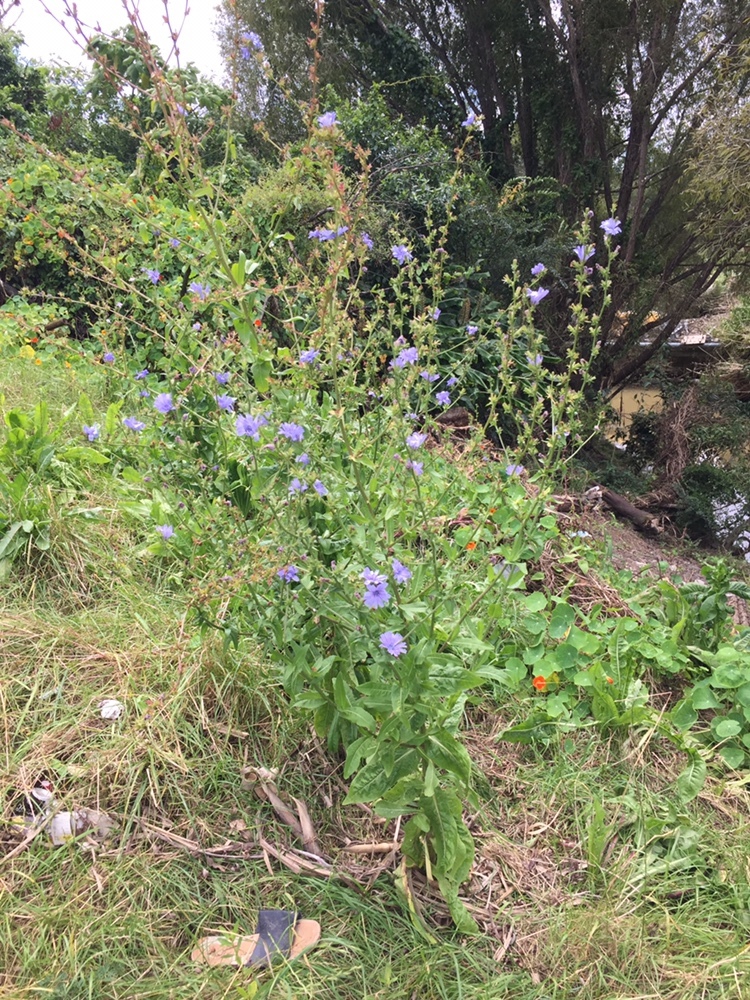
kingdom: Plantae
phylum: Tracheophyta
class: Magnoliopsida
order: Asterales
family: Asteraceae
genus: Cichorium
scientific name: Cichorium intybus
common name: Chicory
